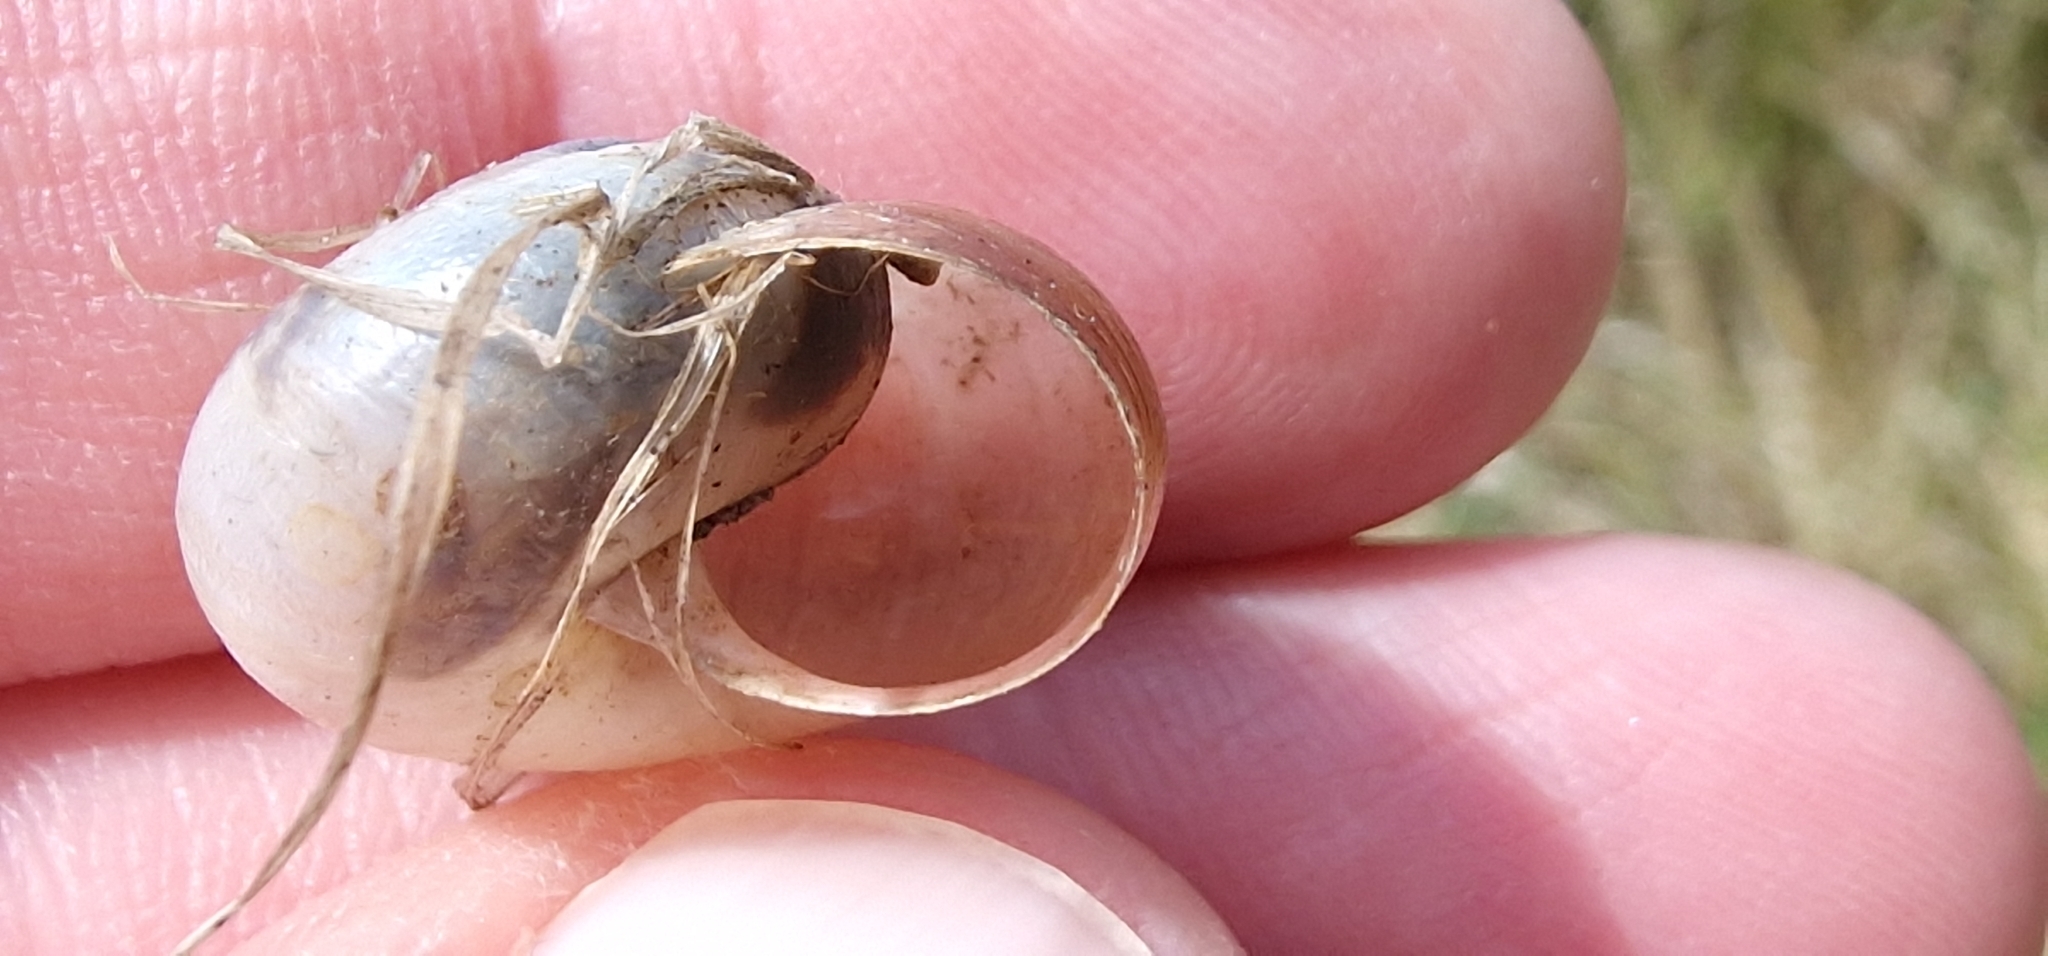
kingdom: Animalia
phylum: Mollusca
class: Gastropoda
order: Stylommatophora
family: Hygromiidae
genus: Monacha
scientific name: Monacha cantiana
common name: Kentish snail
